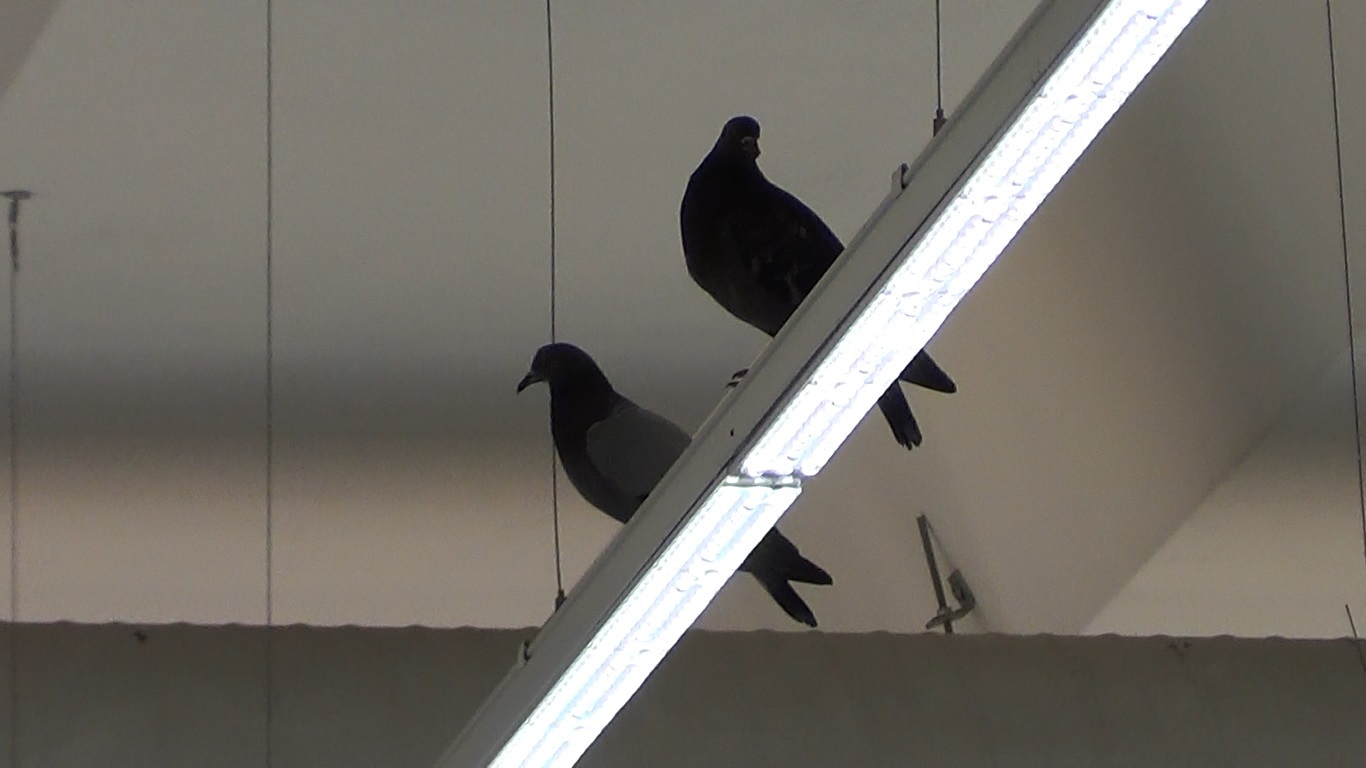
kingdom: Animalia
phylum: Chordata
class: Aves
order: Columbiformes
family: Columbidae
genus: Columba
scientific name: Columba livia
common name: Rock pigeon
